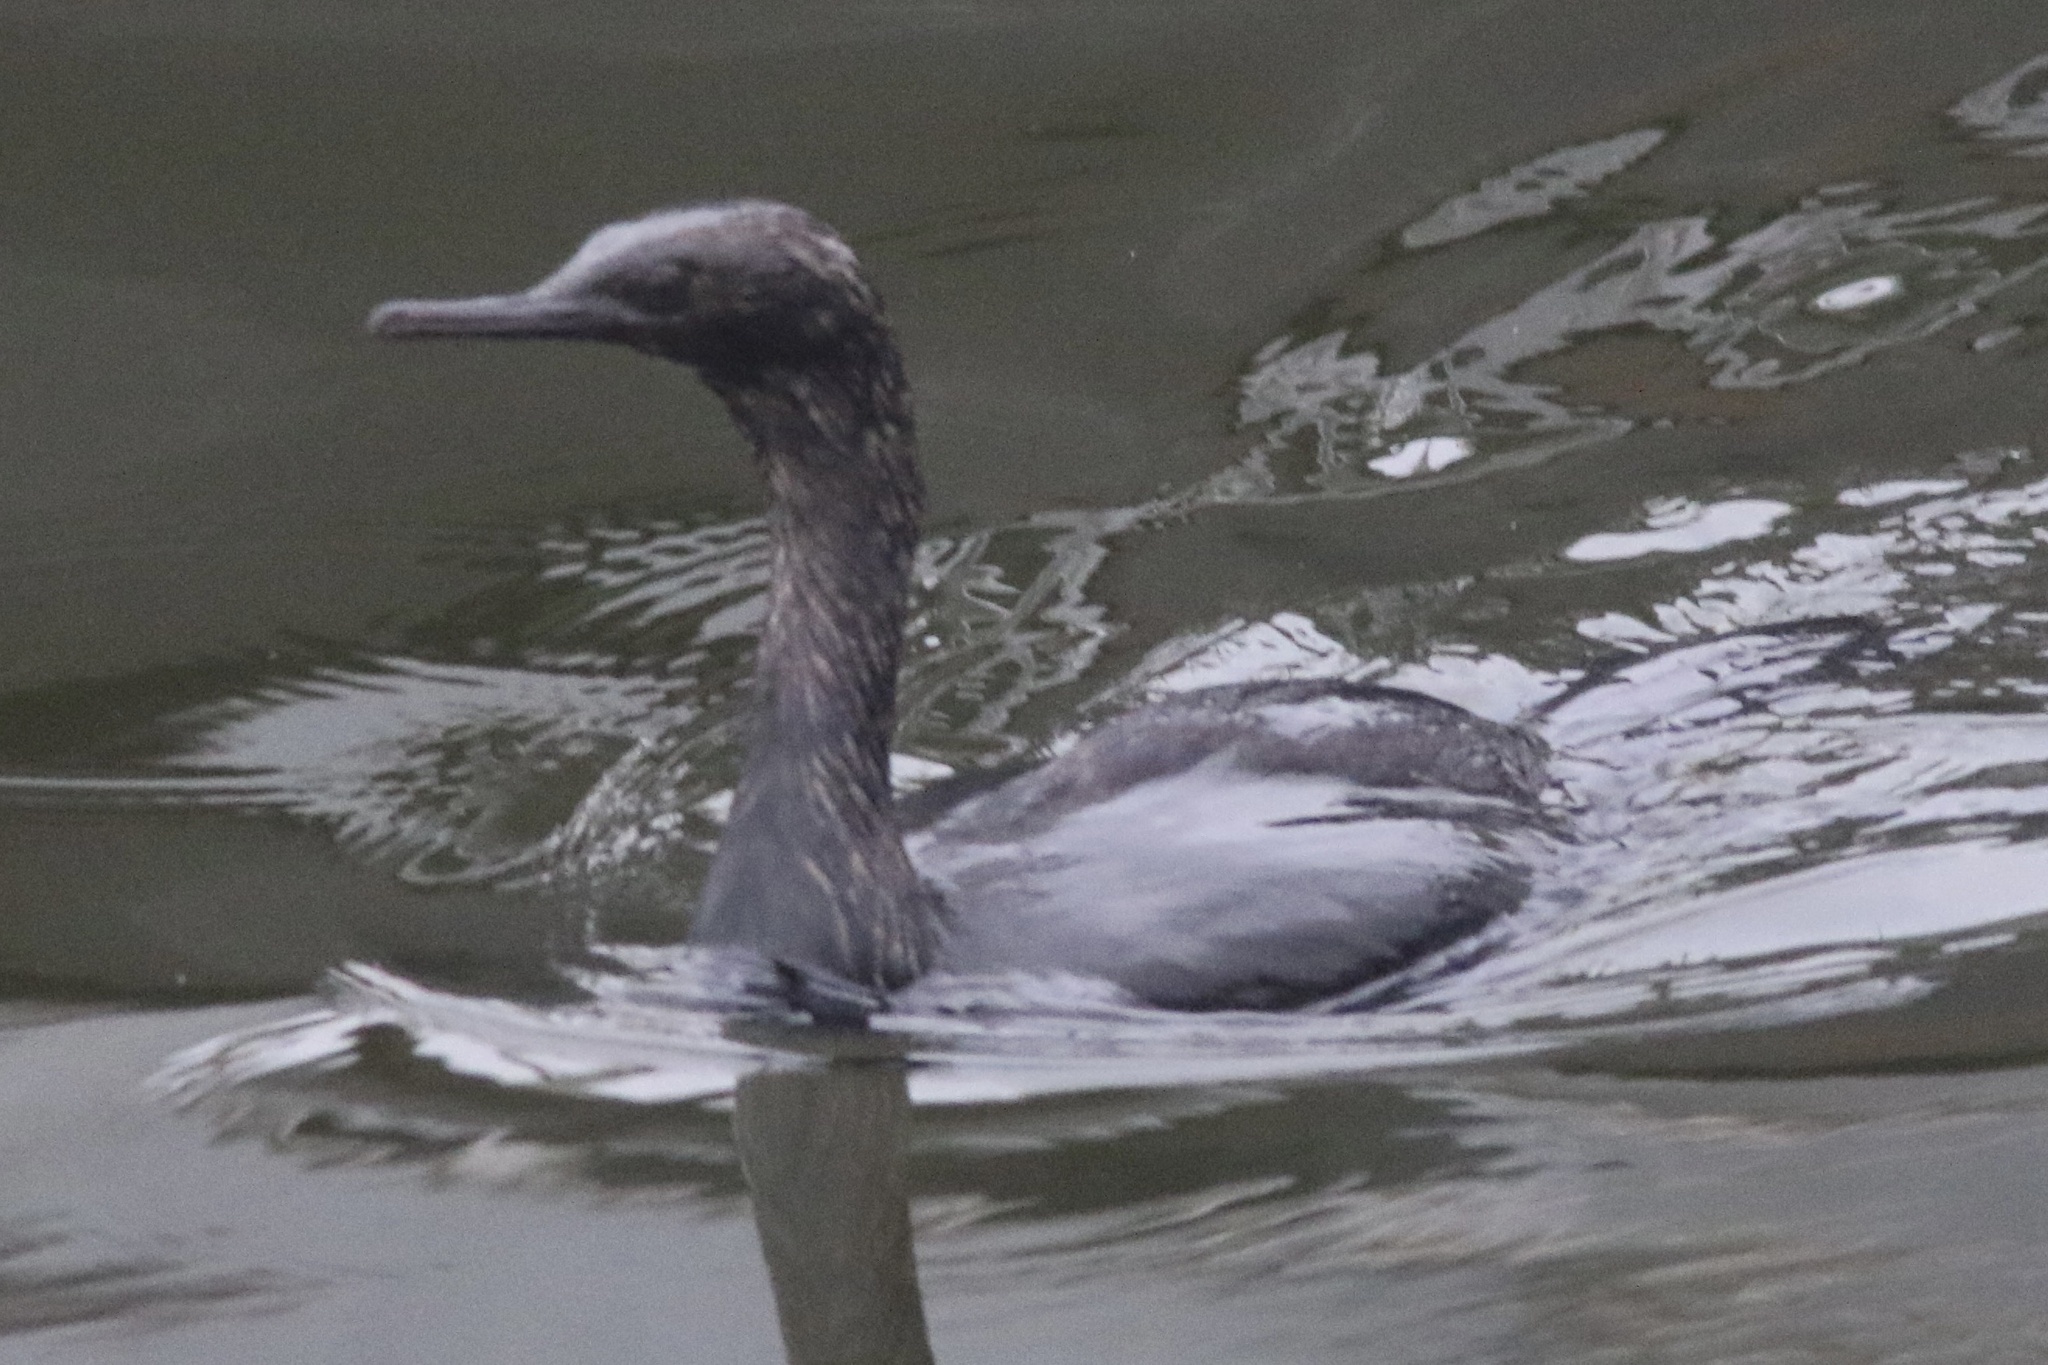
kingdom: Animalia
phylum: Chordata
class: Aves
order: Suliformes
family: Phalacrocoracidae
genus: Phalacrocorax
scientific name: Phalacrocorax pelagicus
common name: Pelagic cormorant
